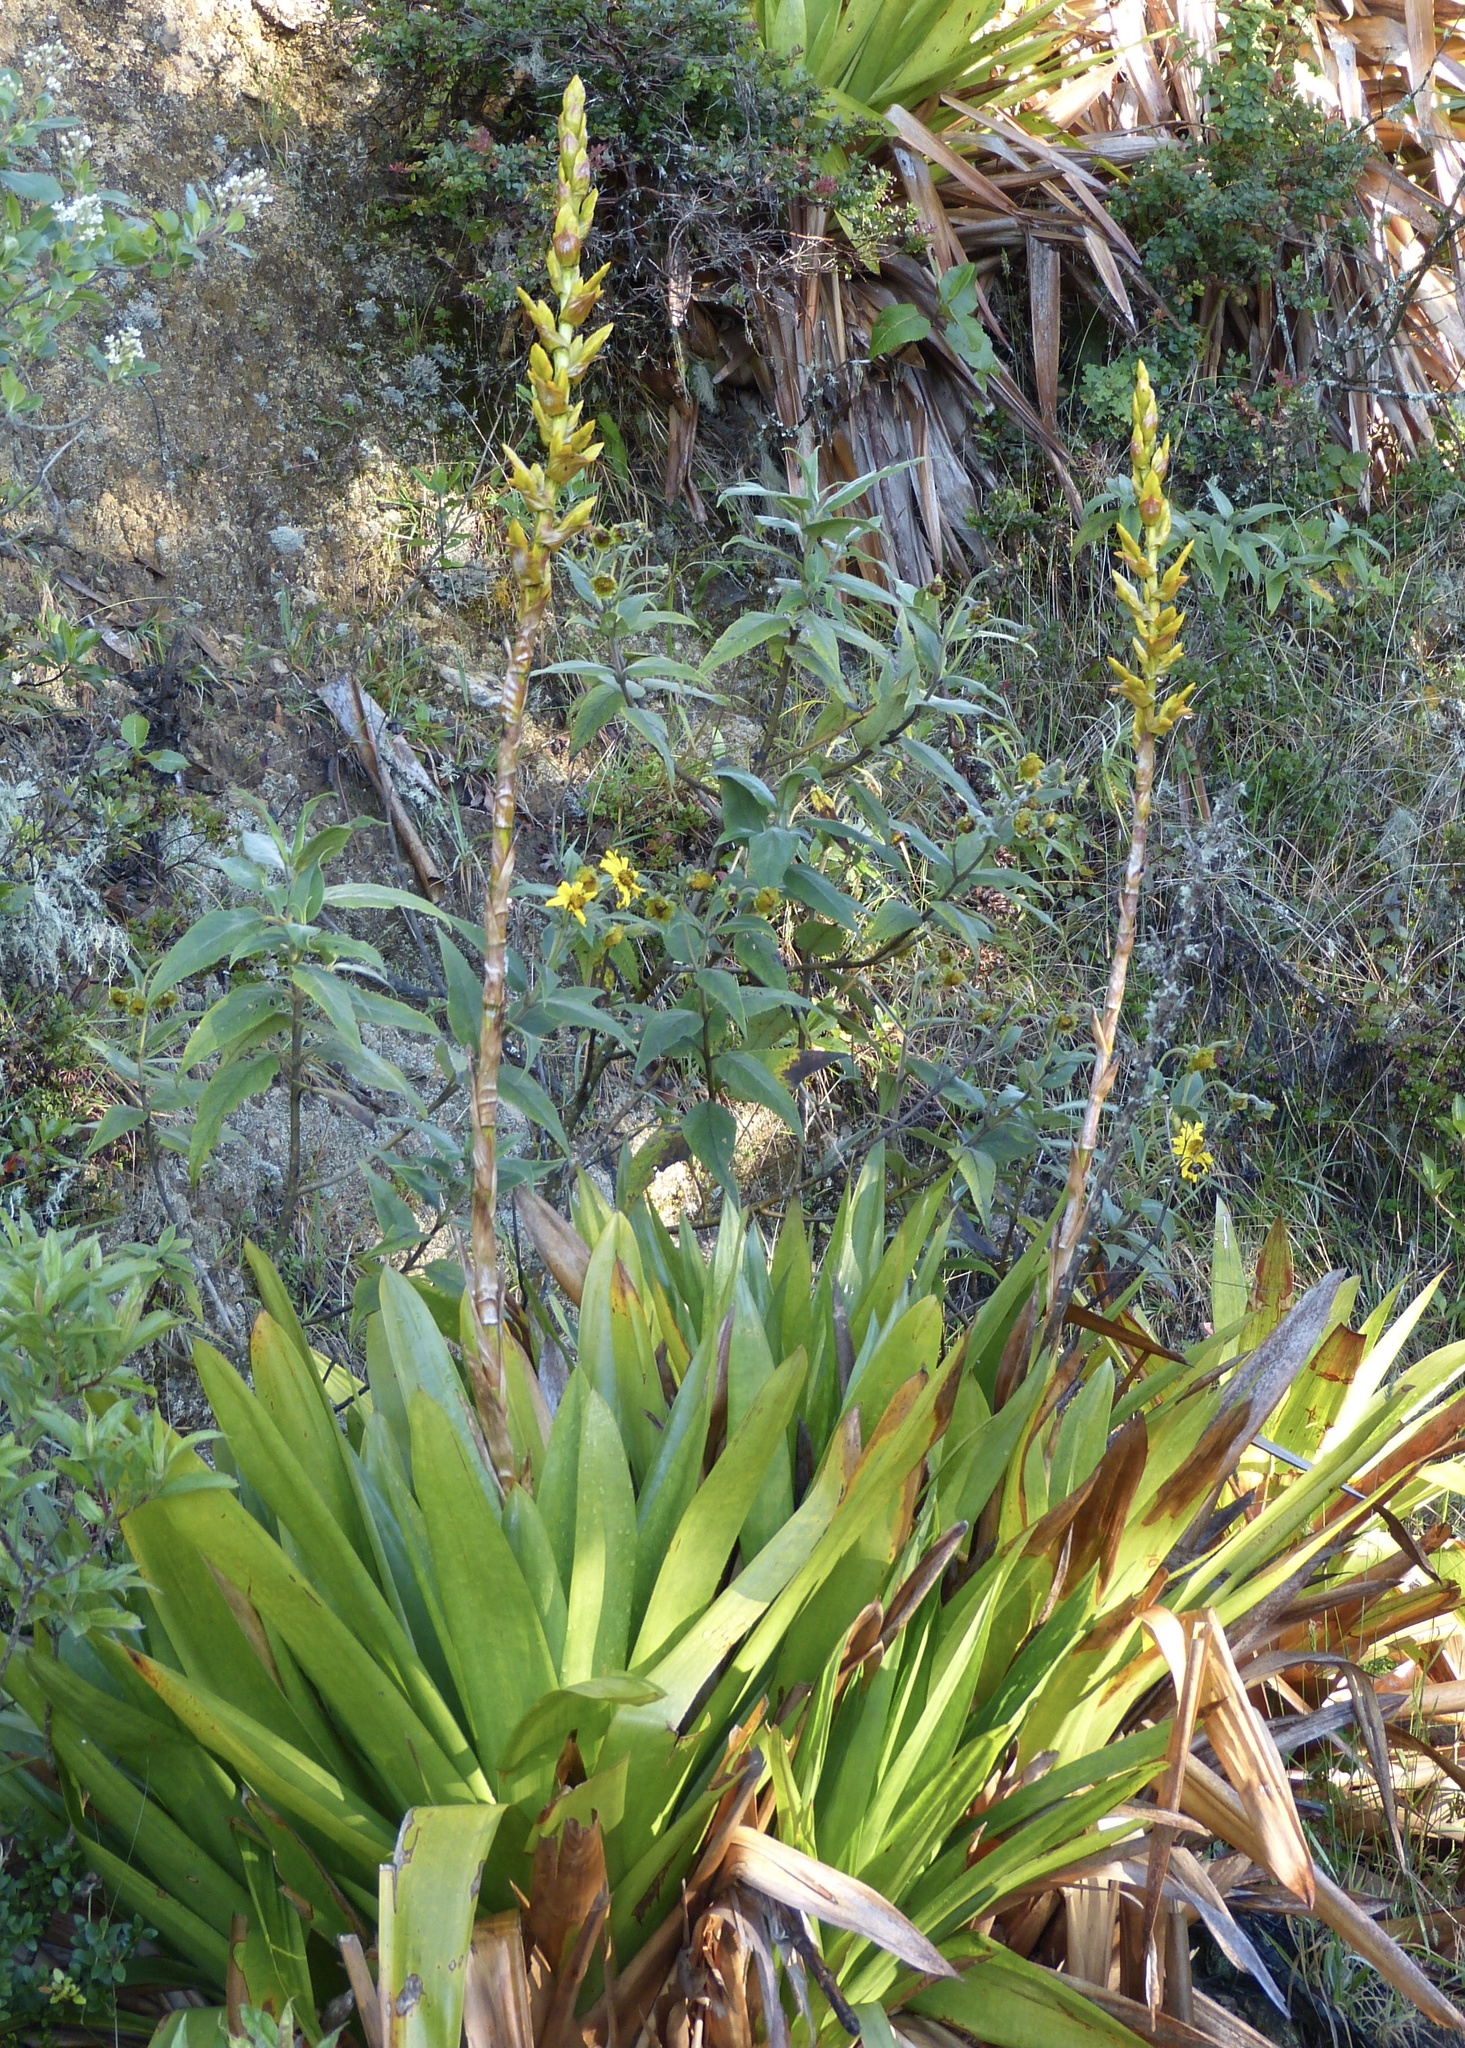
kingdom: Plantae
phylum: Tracheophyta
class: Liliopsida
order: Poales
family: Bromeliaceae
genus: Cipuropsis
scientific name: Cipuropsis hospitalis
